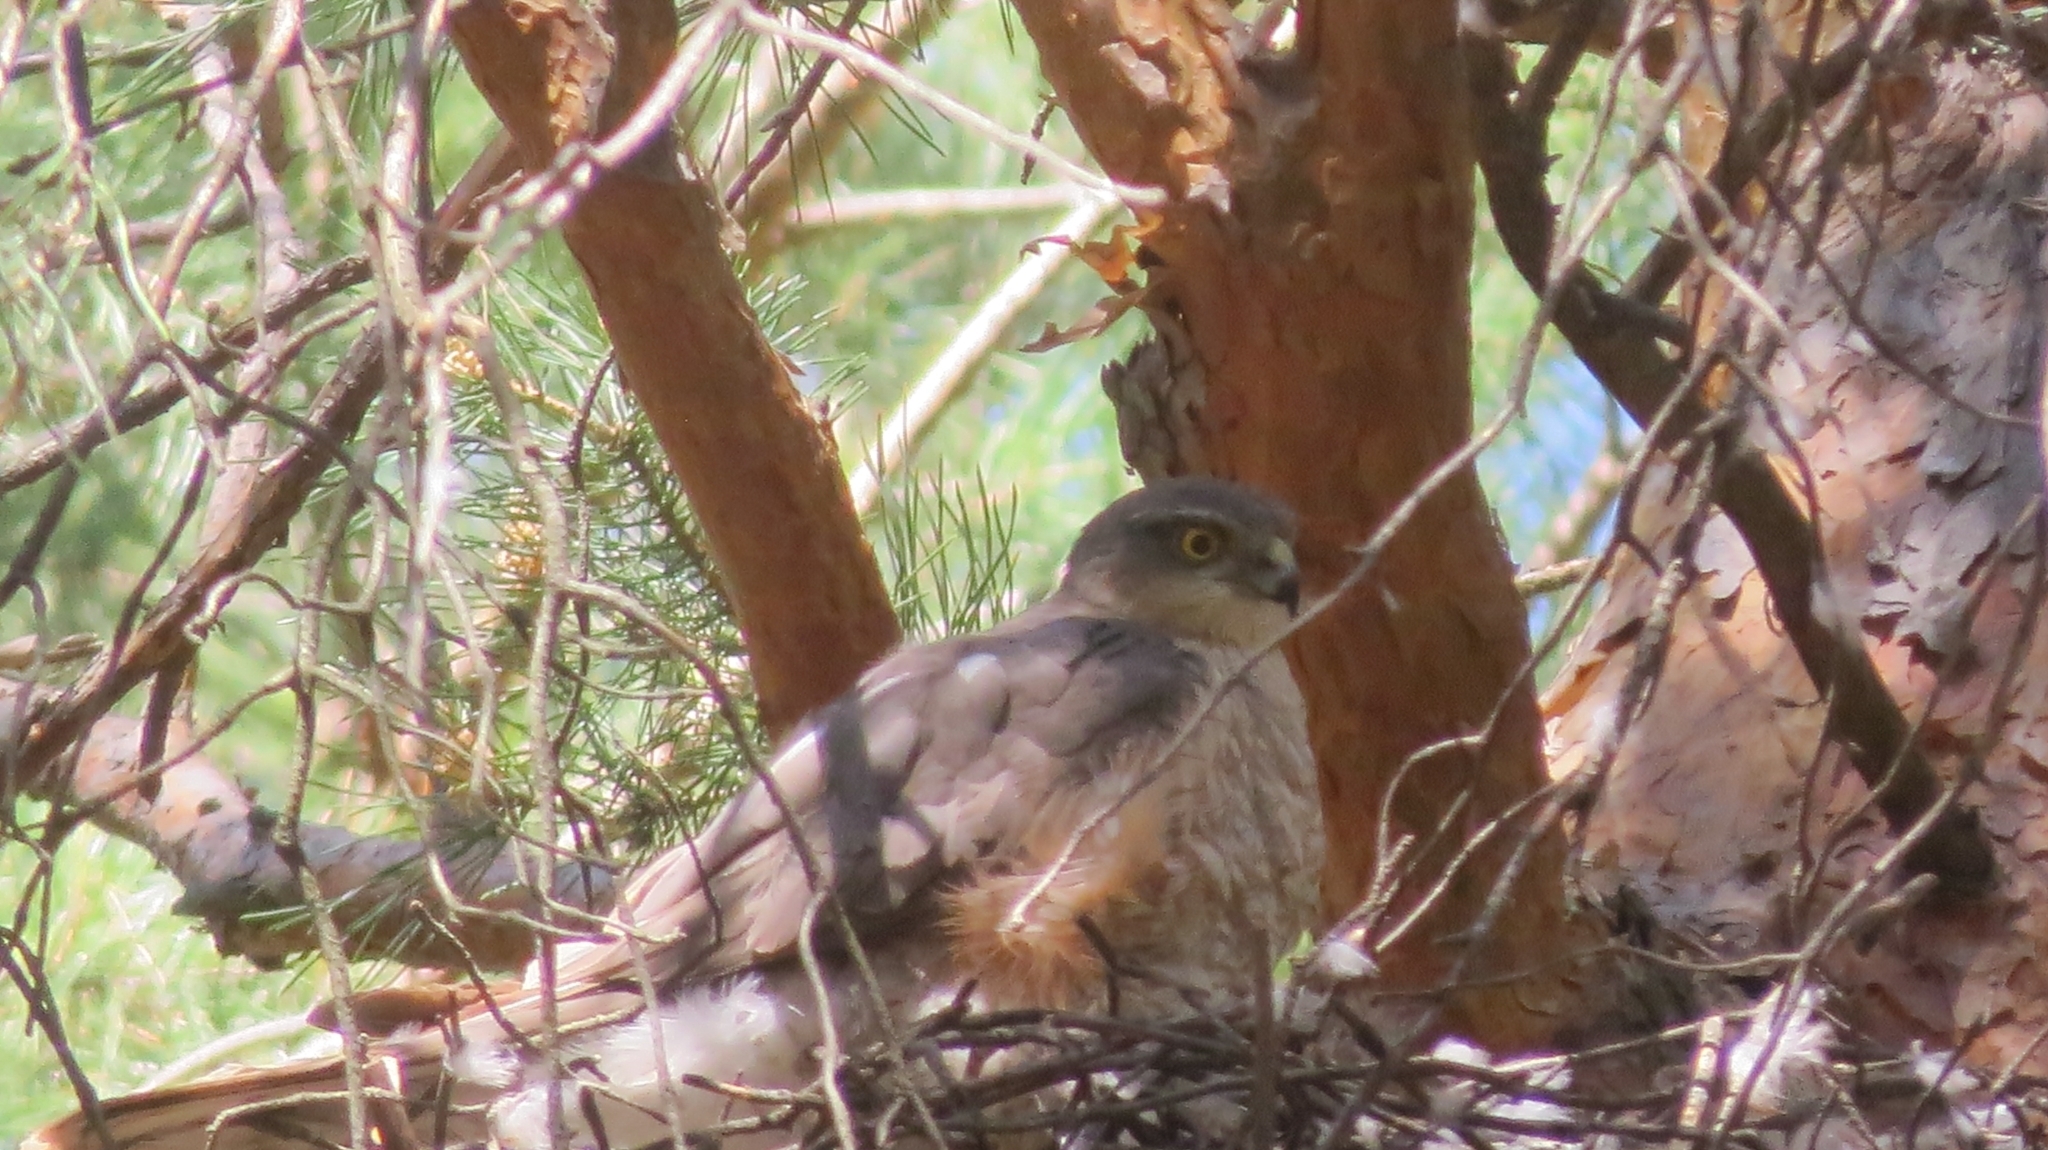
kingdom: Animalia
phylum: Chordata
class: Aves
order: Accipitriformes
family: Accipitridae
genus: Accipiter
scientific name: Accipiter nisus
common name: Eurasian sparrowhawk
